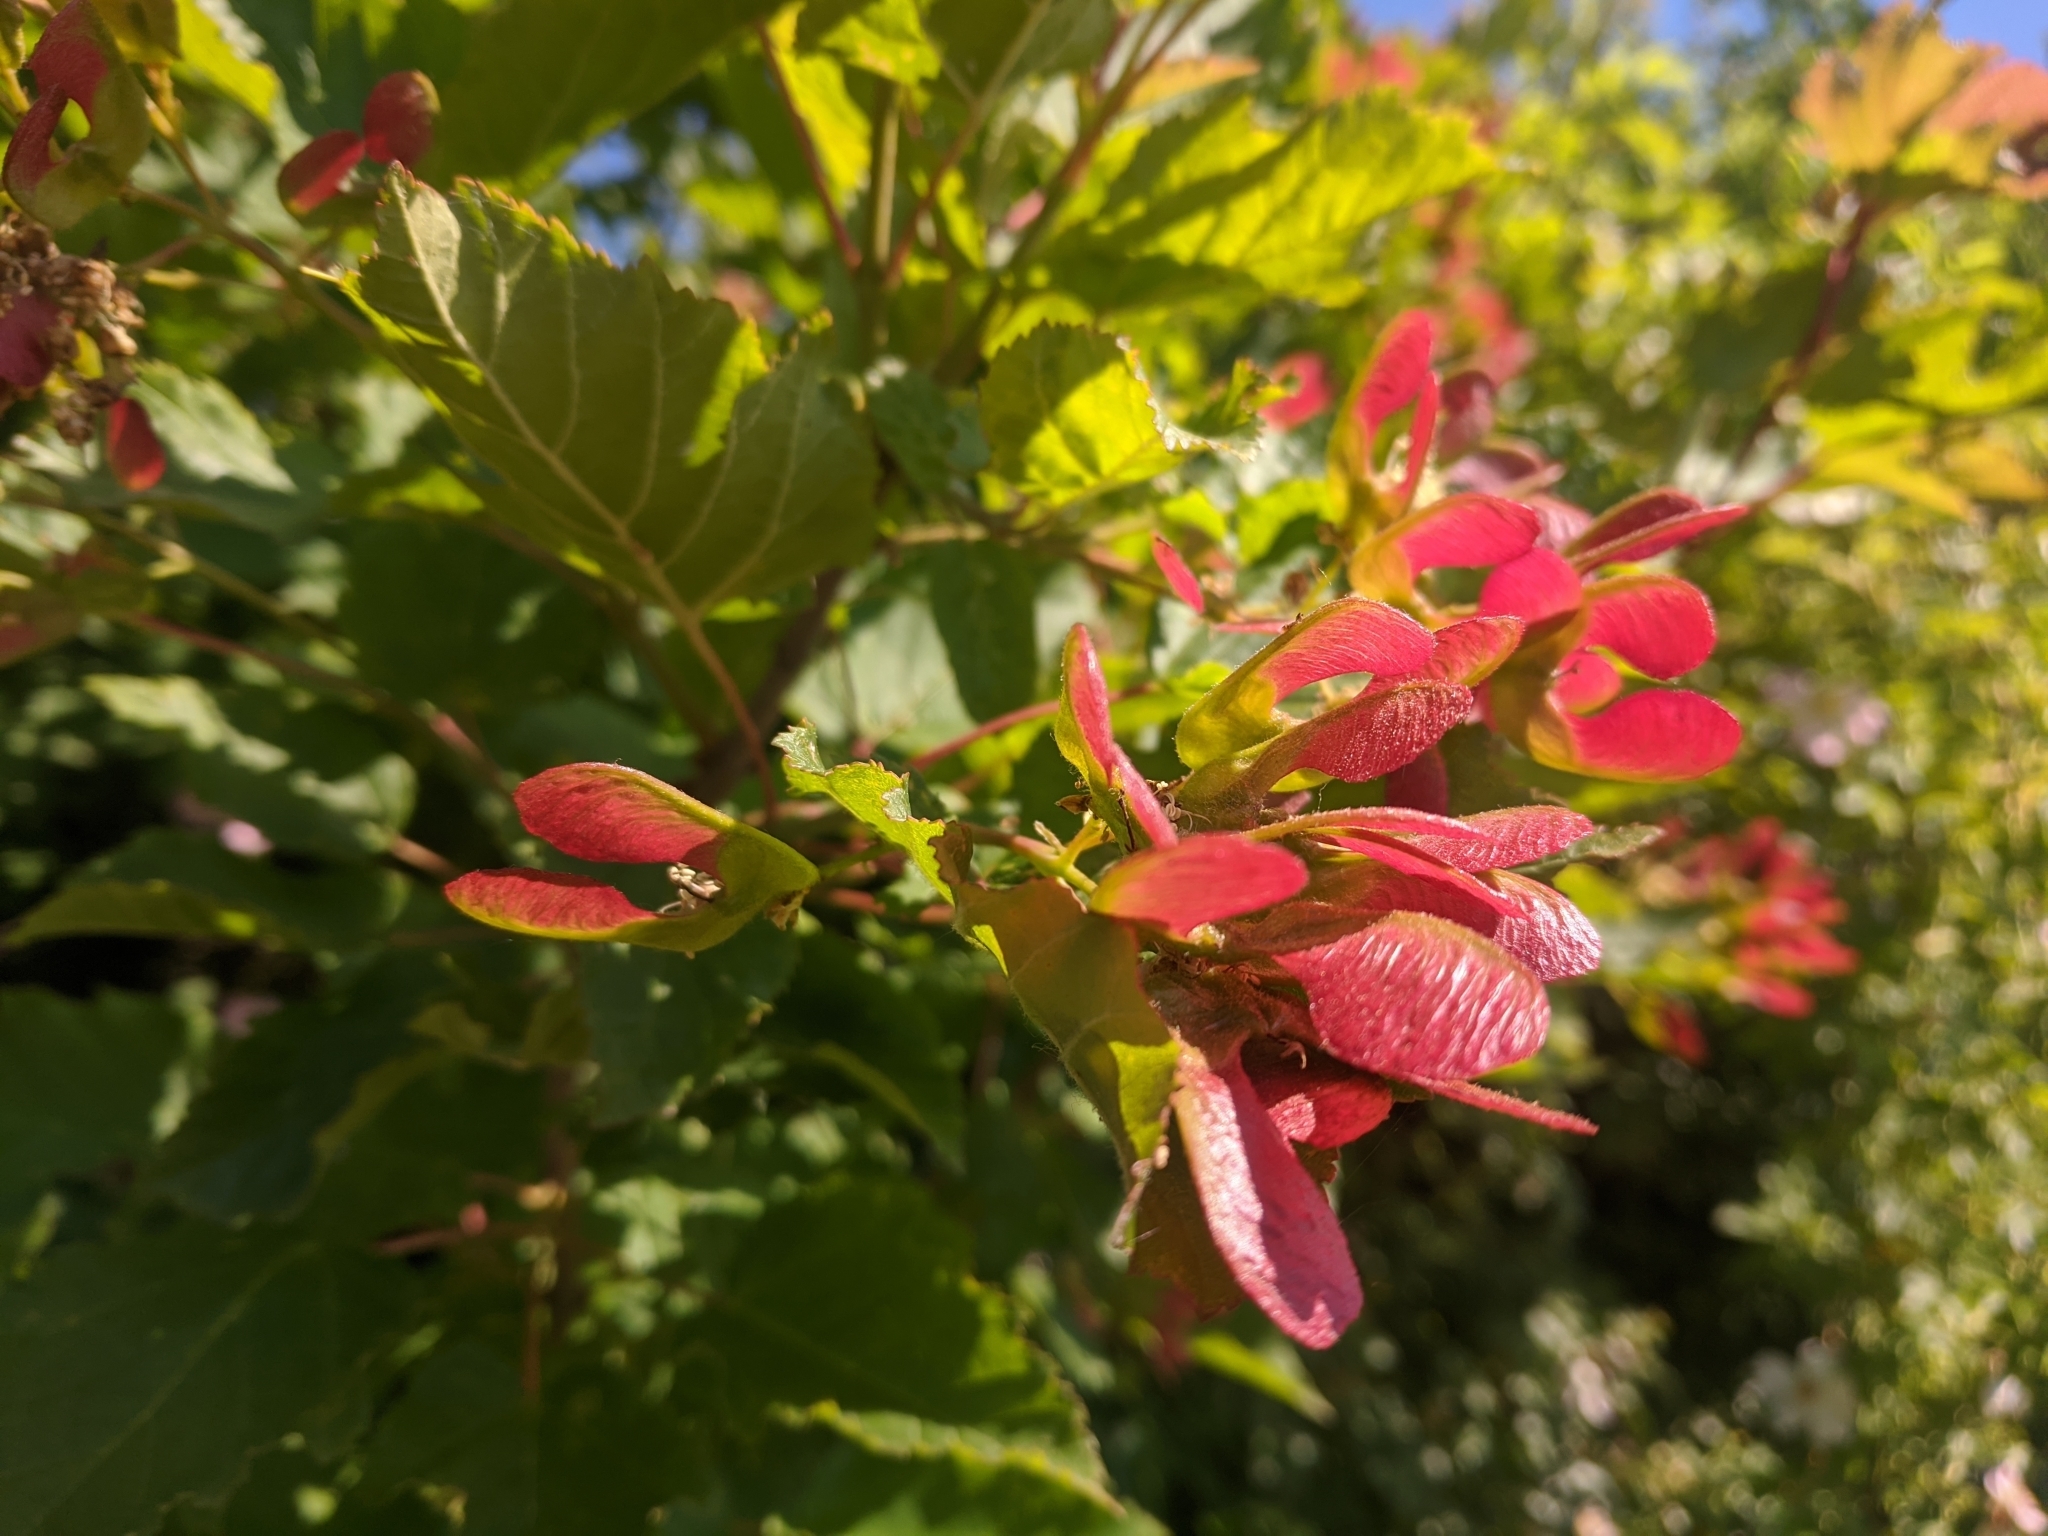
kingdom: Plantae
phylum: Tracheophyta
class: Magnoliopsida
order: Sapindales
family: Sapindaceae
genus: Acer
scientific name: Acer tataricum
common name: Tartar maple
